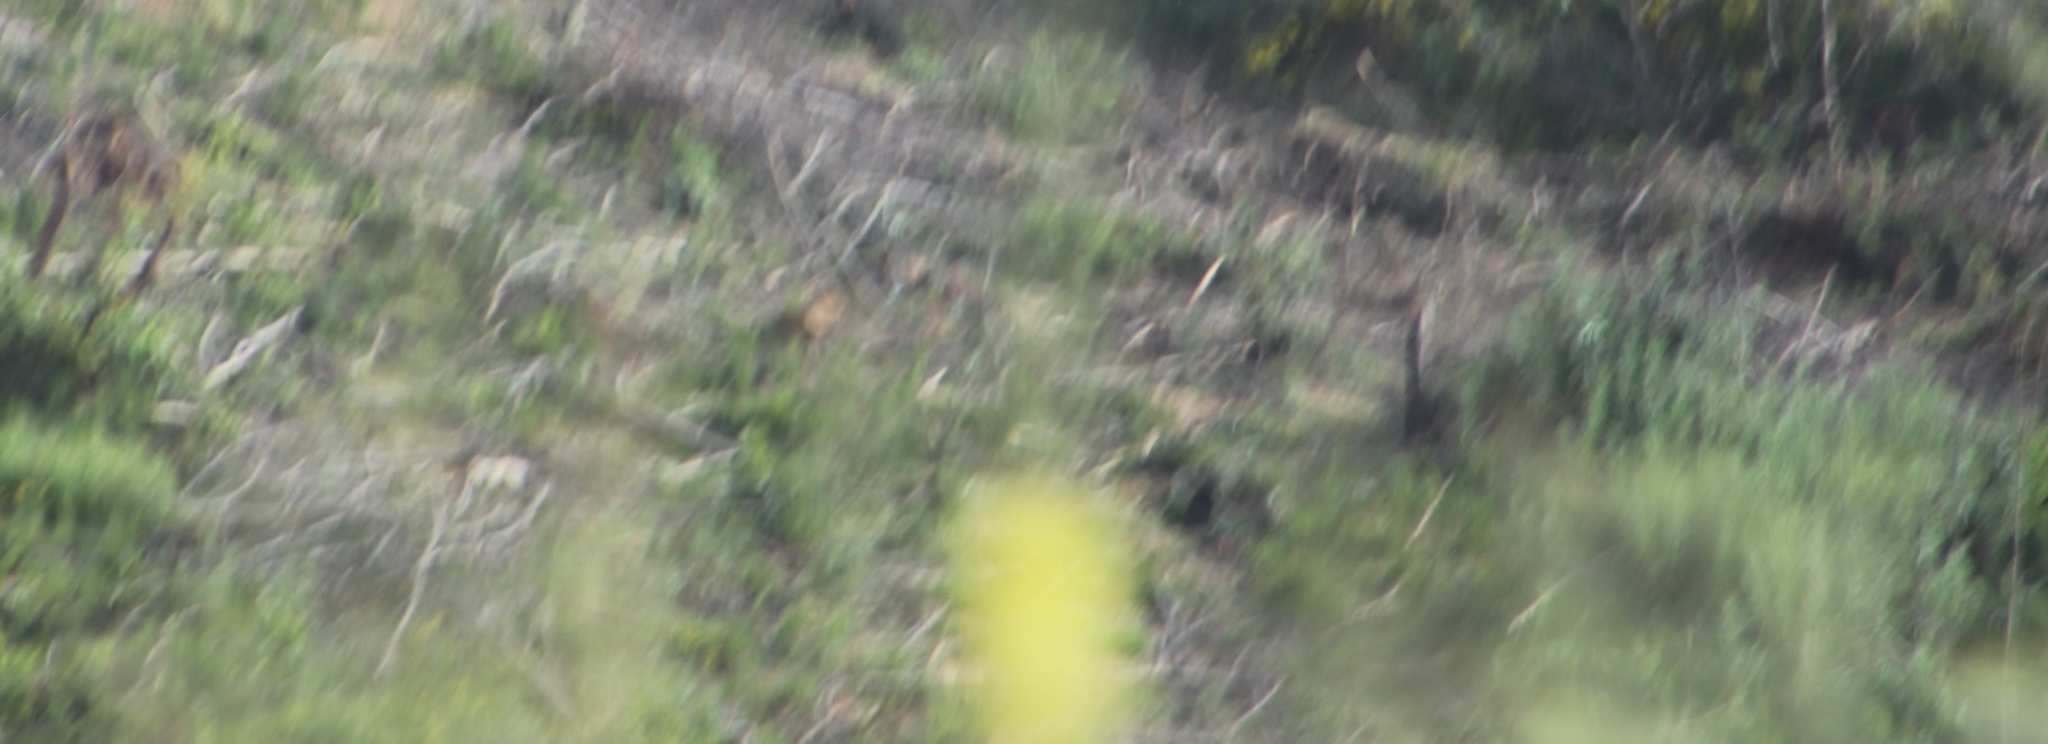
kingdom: Plantae
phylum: Tracheophyta
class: Magnoliopsida
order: Lamiales
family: Scrophulariaceae
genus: Verbascum
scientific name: Verbascum virgatum
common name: Twiggy mullein
